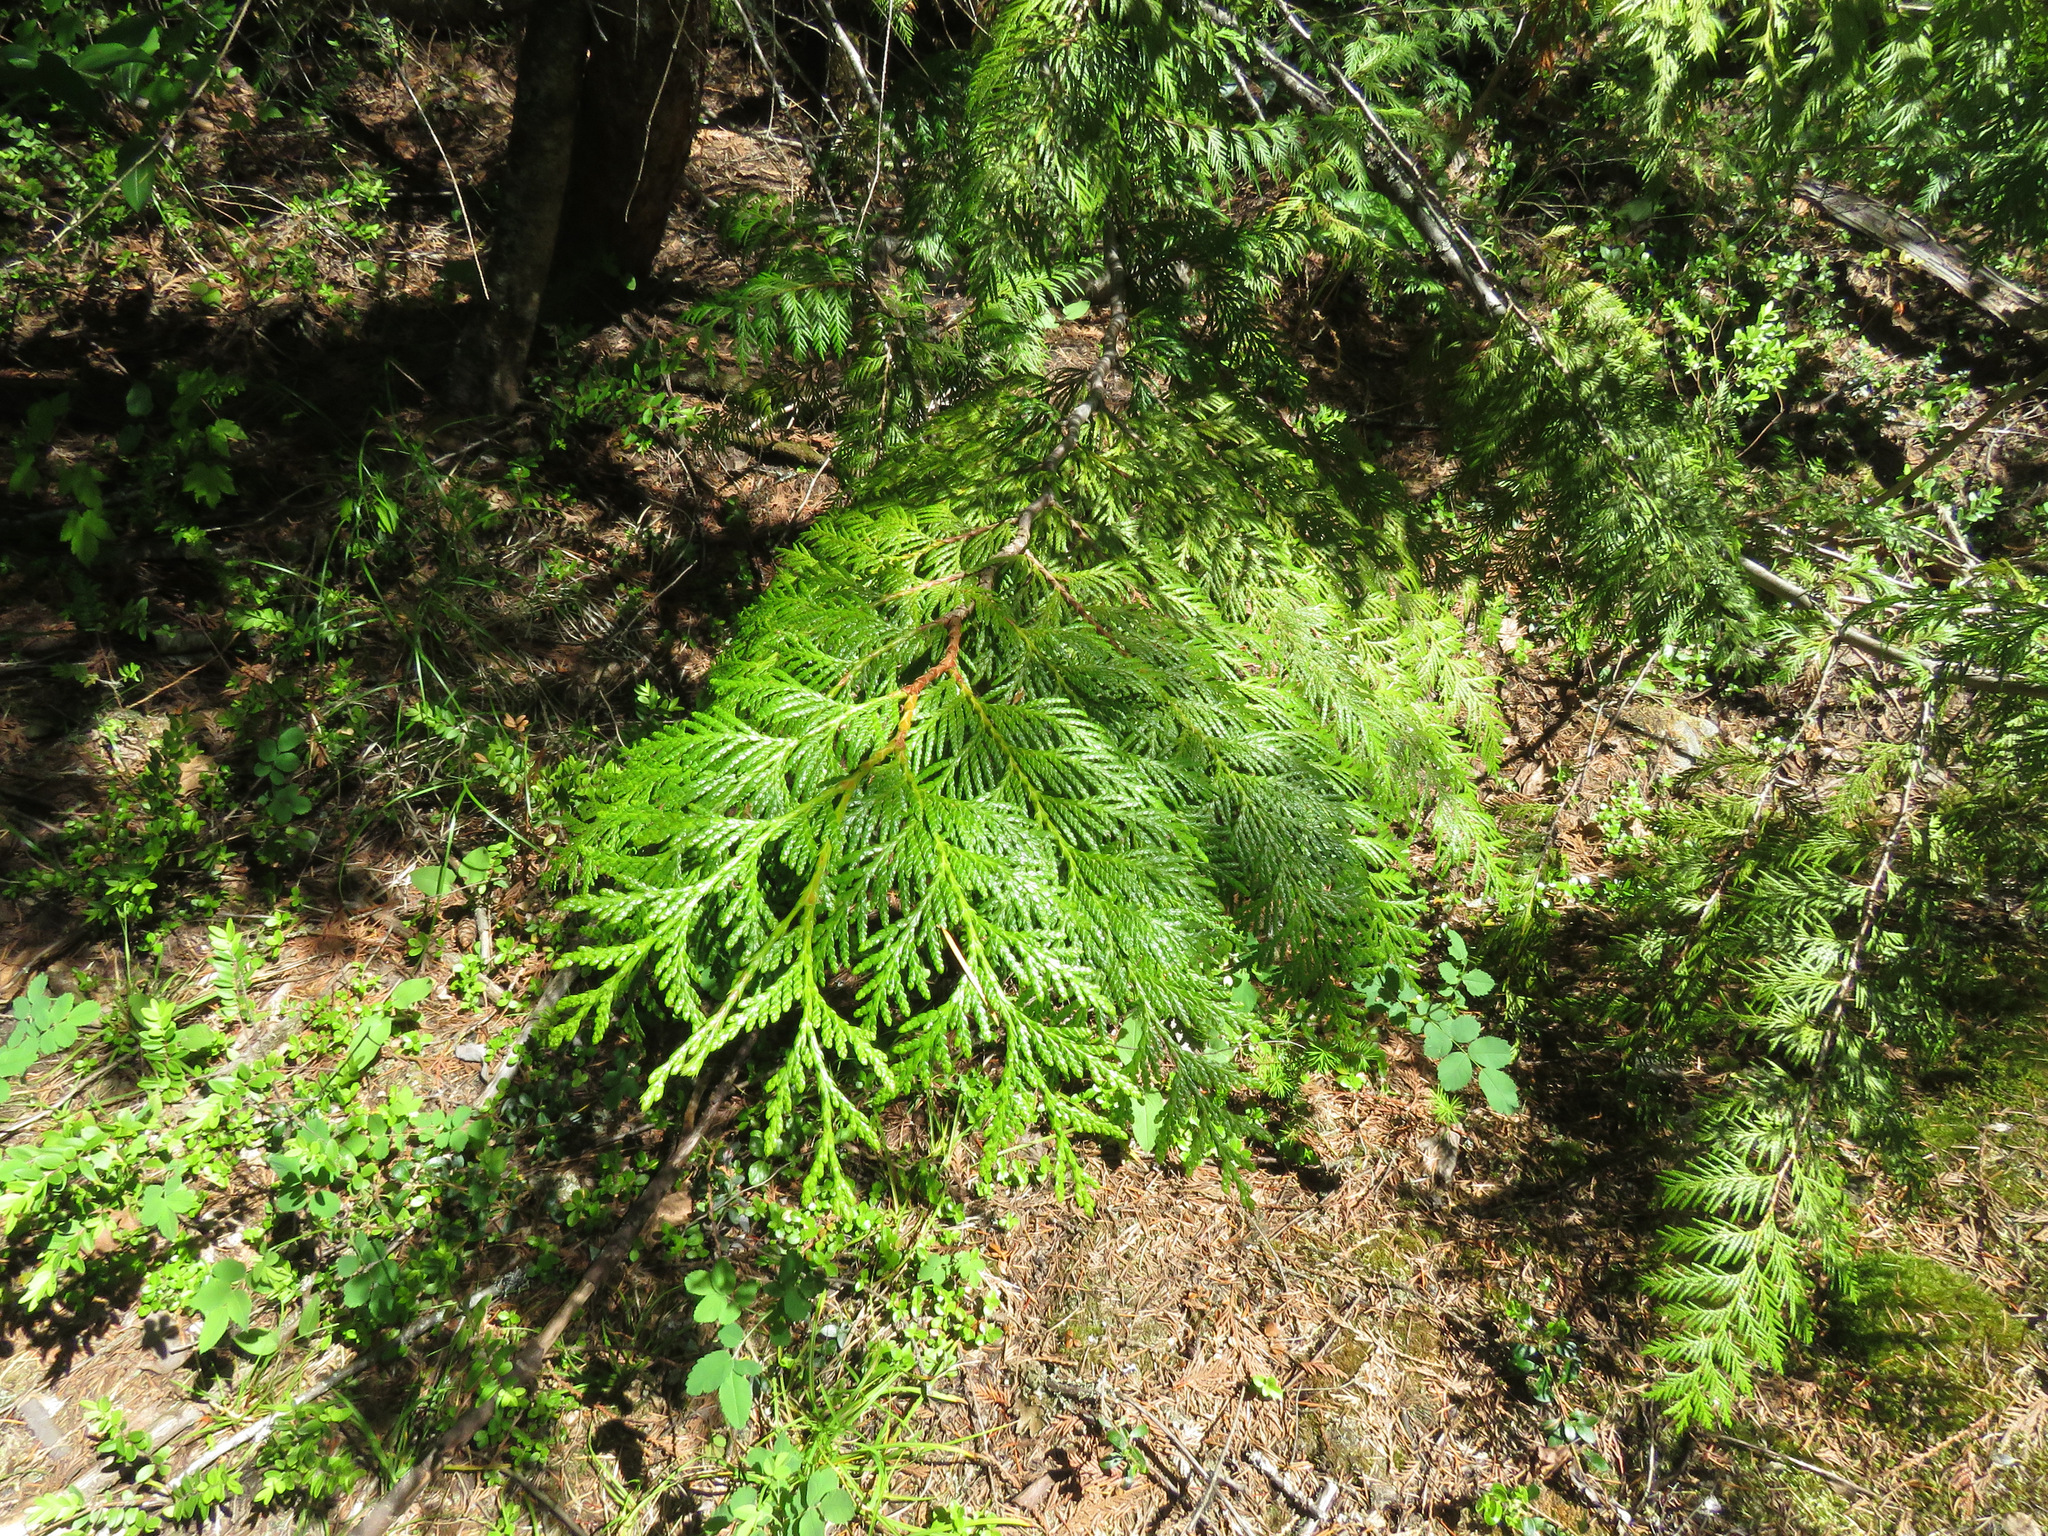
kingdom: Plantae
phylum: Tracheophyta
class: Pinopsida
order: Pinales
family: Cupressaceae
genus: Thuja
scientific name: Thuja plicata
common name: Western red-cedar
